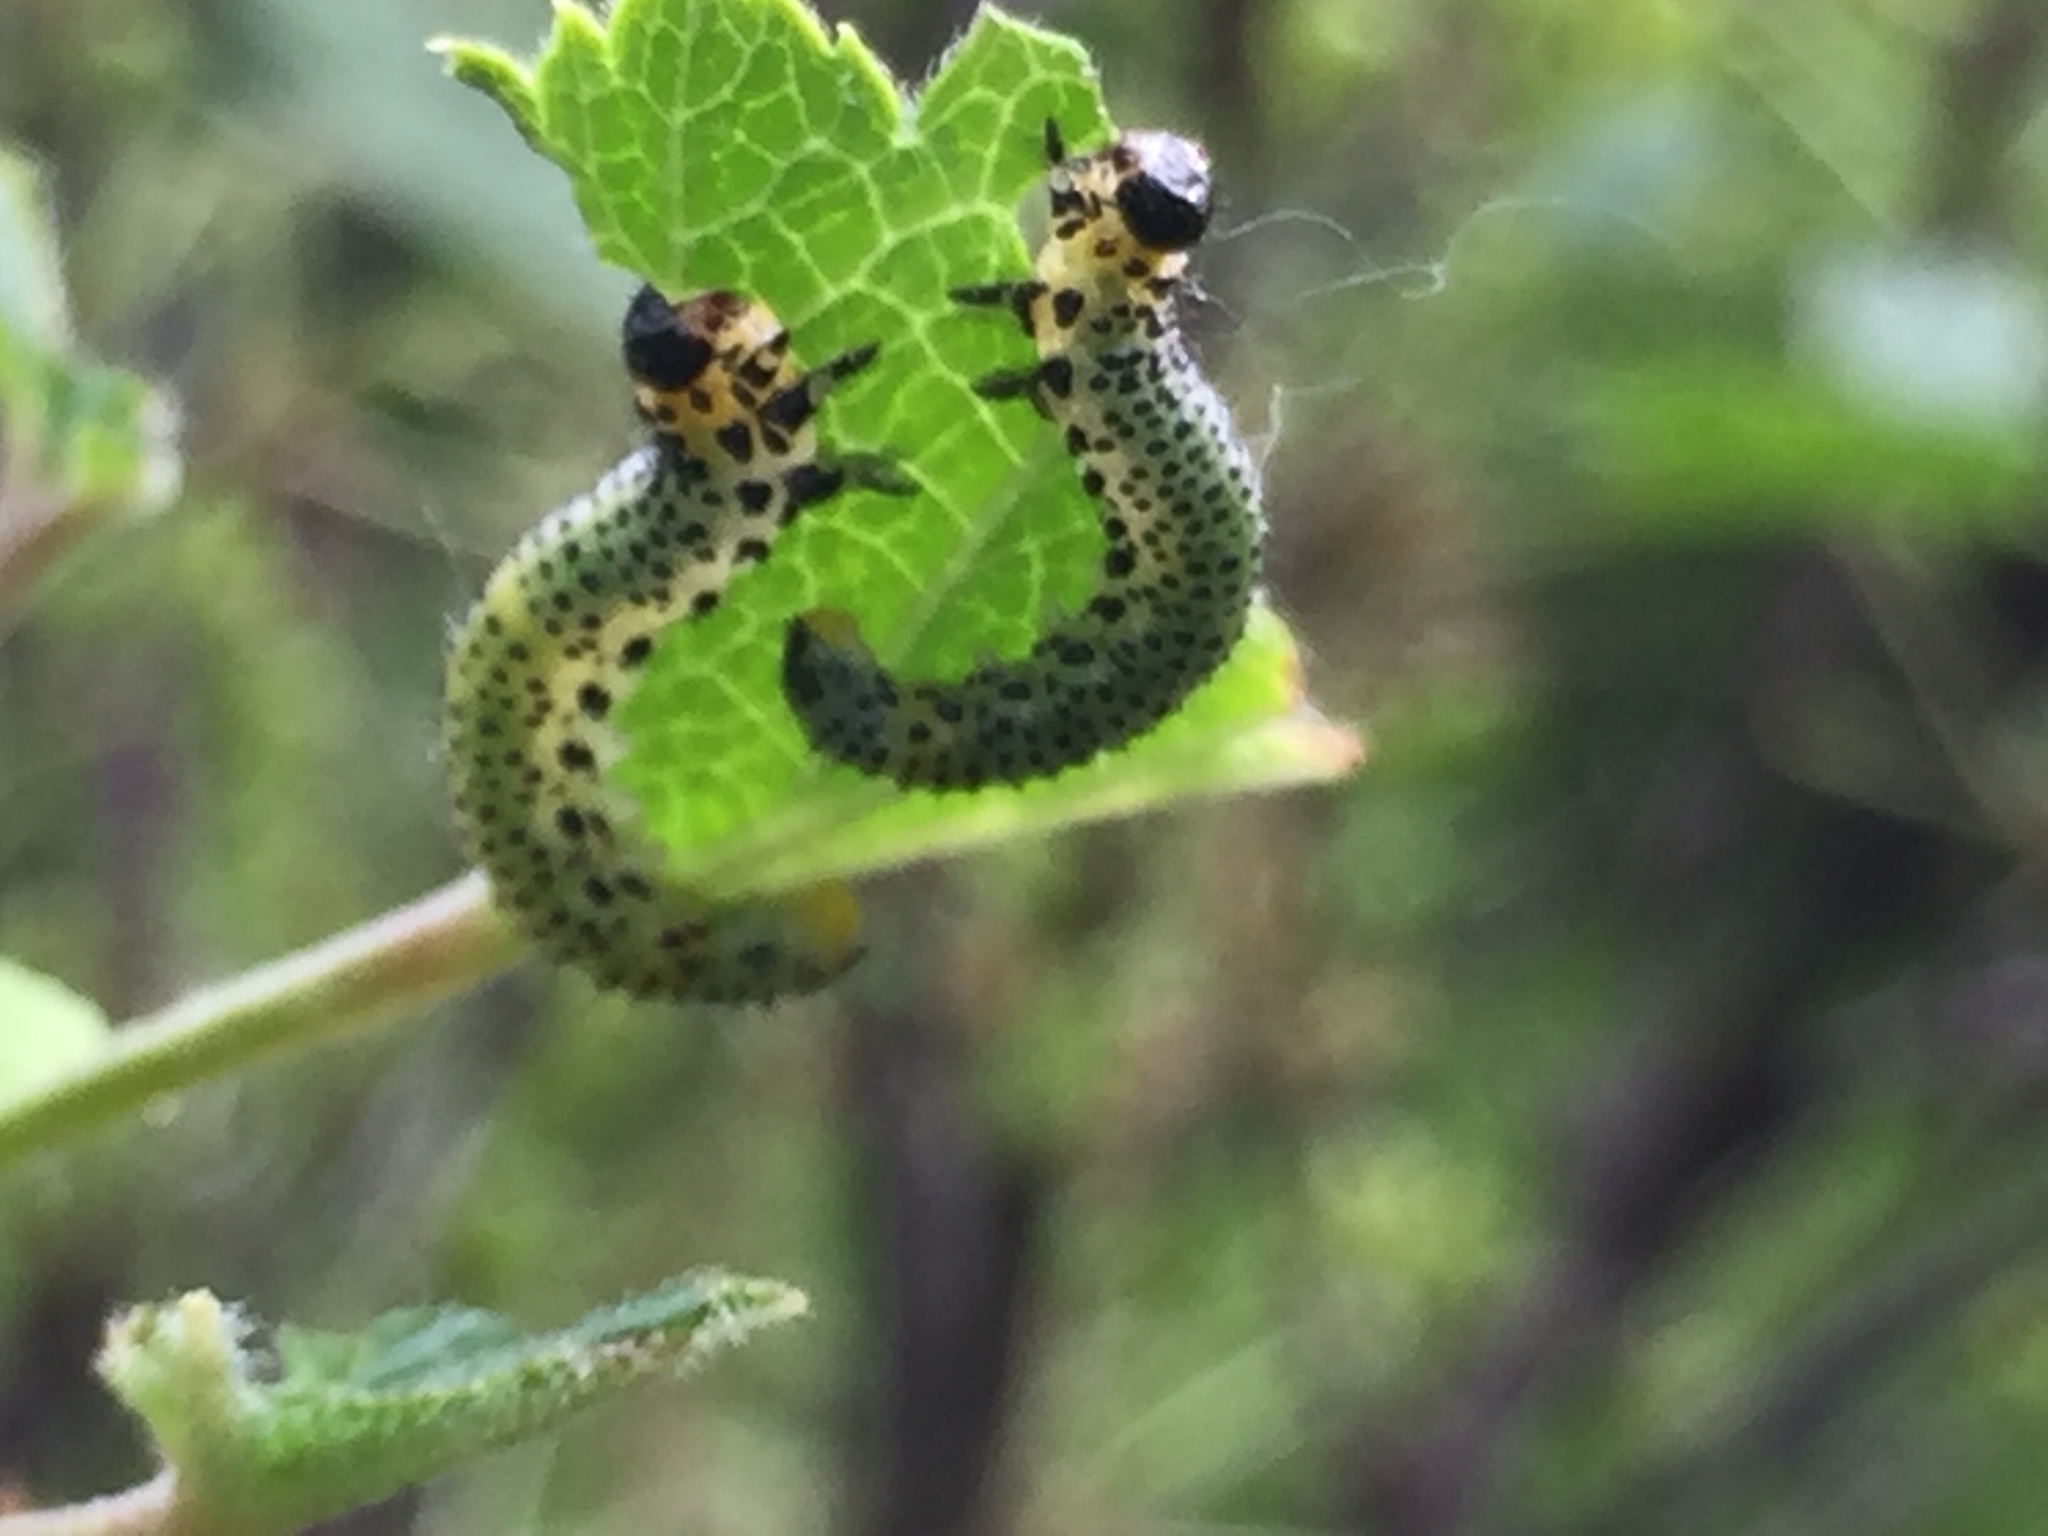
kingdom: Animalia
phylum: Arthropoda
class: Insecta
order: Hymenoptera
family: Tenthredinidae
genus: Nematus
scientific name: Nematus ribesii
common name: Imported currantworm
